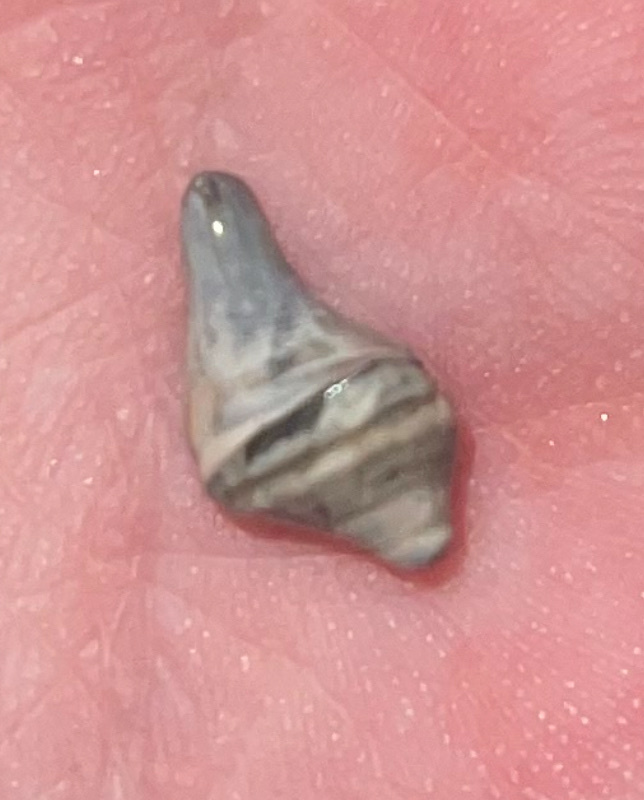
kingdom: Animalia
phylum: Mollusca
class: Gastropoda
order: Neogastropoda
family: Busyconidae
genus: Sinistrofulgur
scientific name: Sinistrofulgur sinistrum
